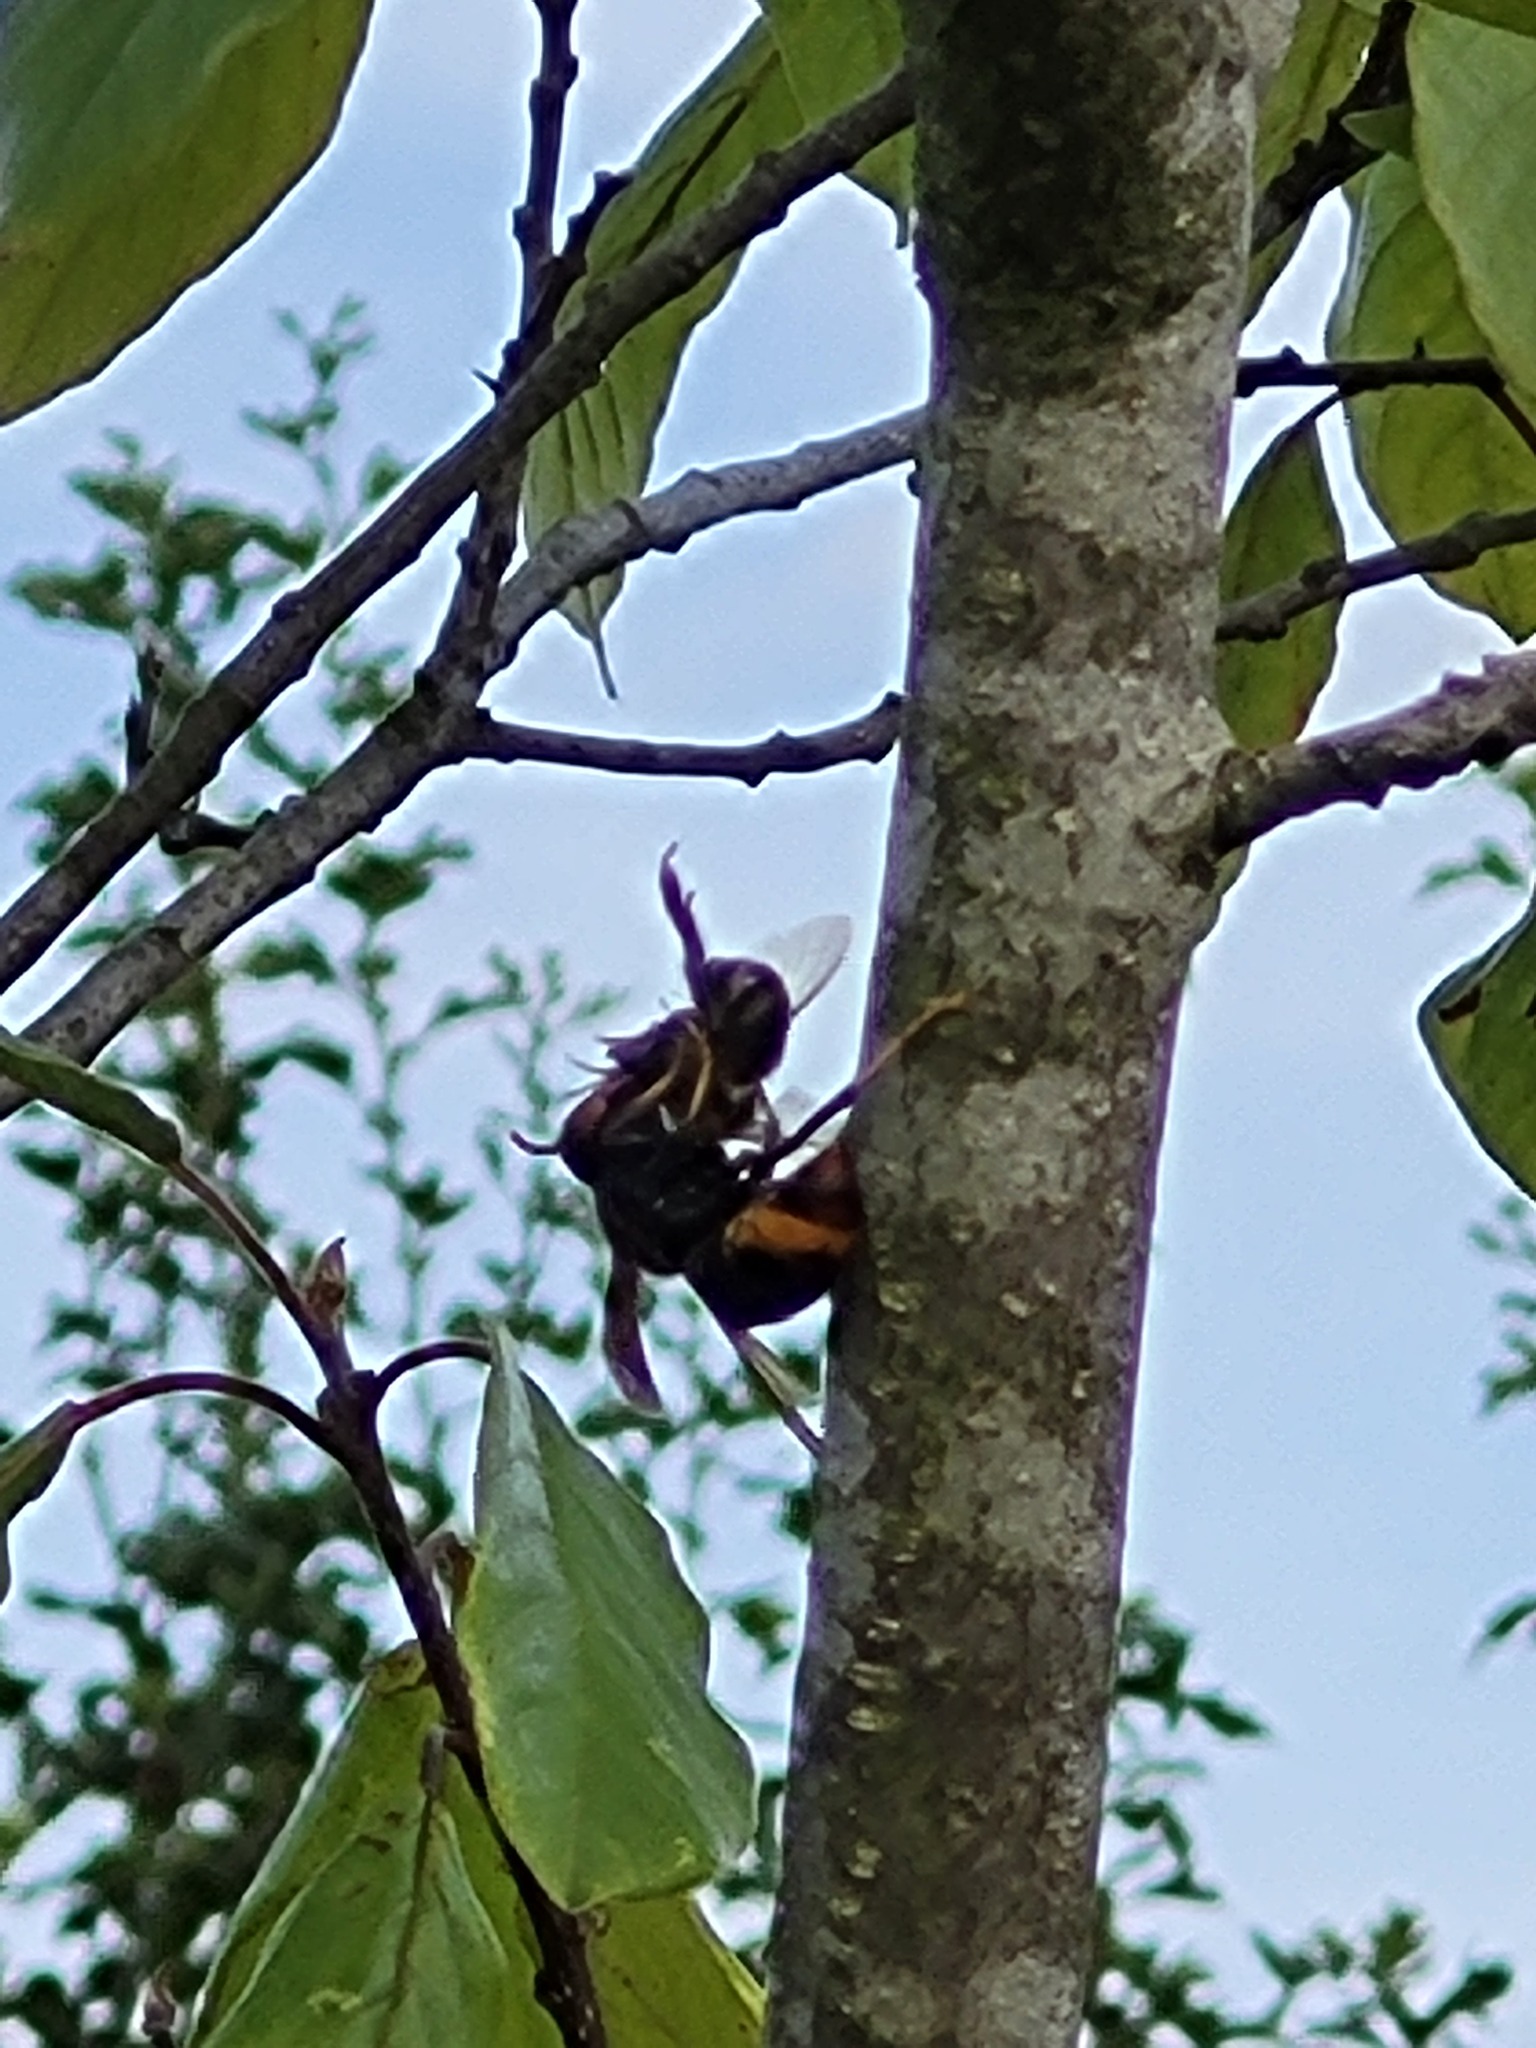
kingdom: Animalia
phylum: Arthropoda
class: Insecta
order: Hymenoptera
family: Vespidae
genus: Vespa
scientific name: Vespa velutina
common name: Asian hornet
